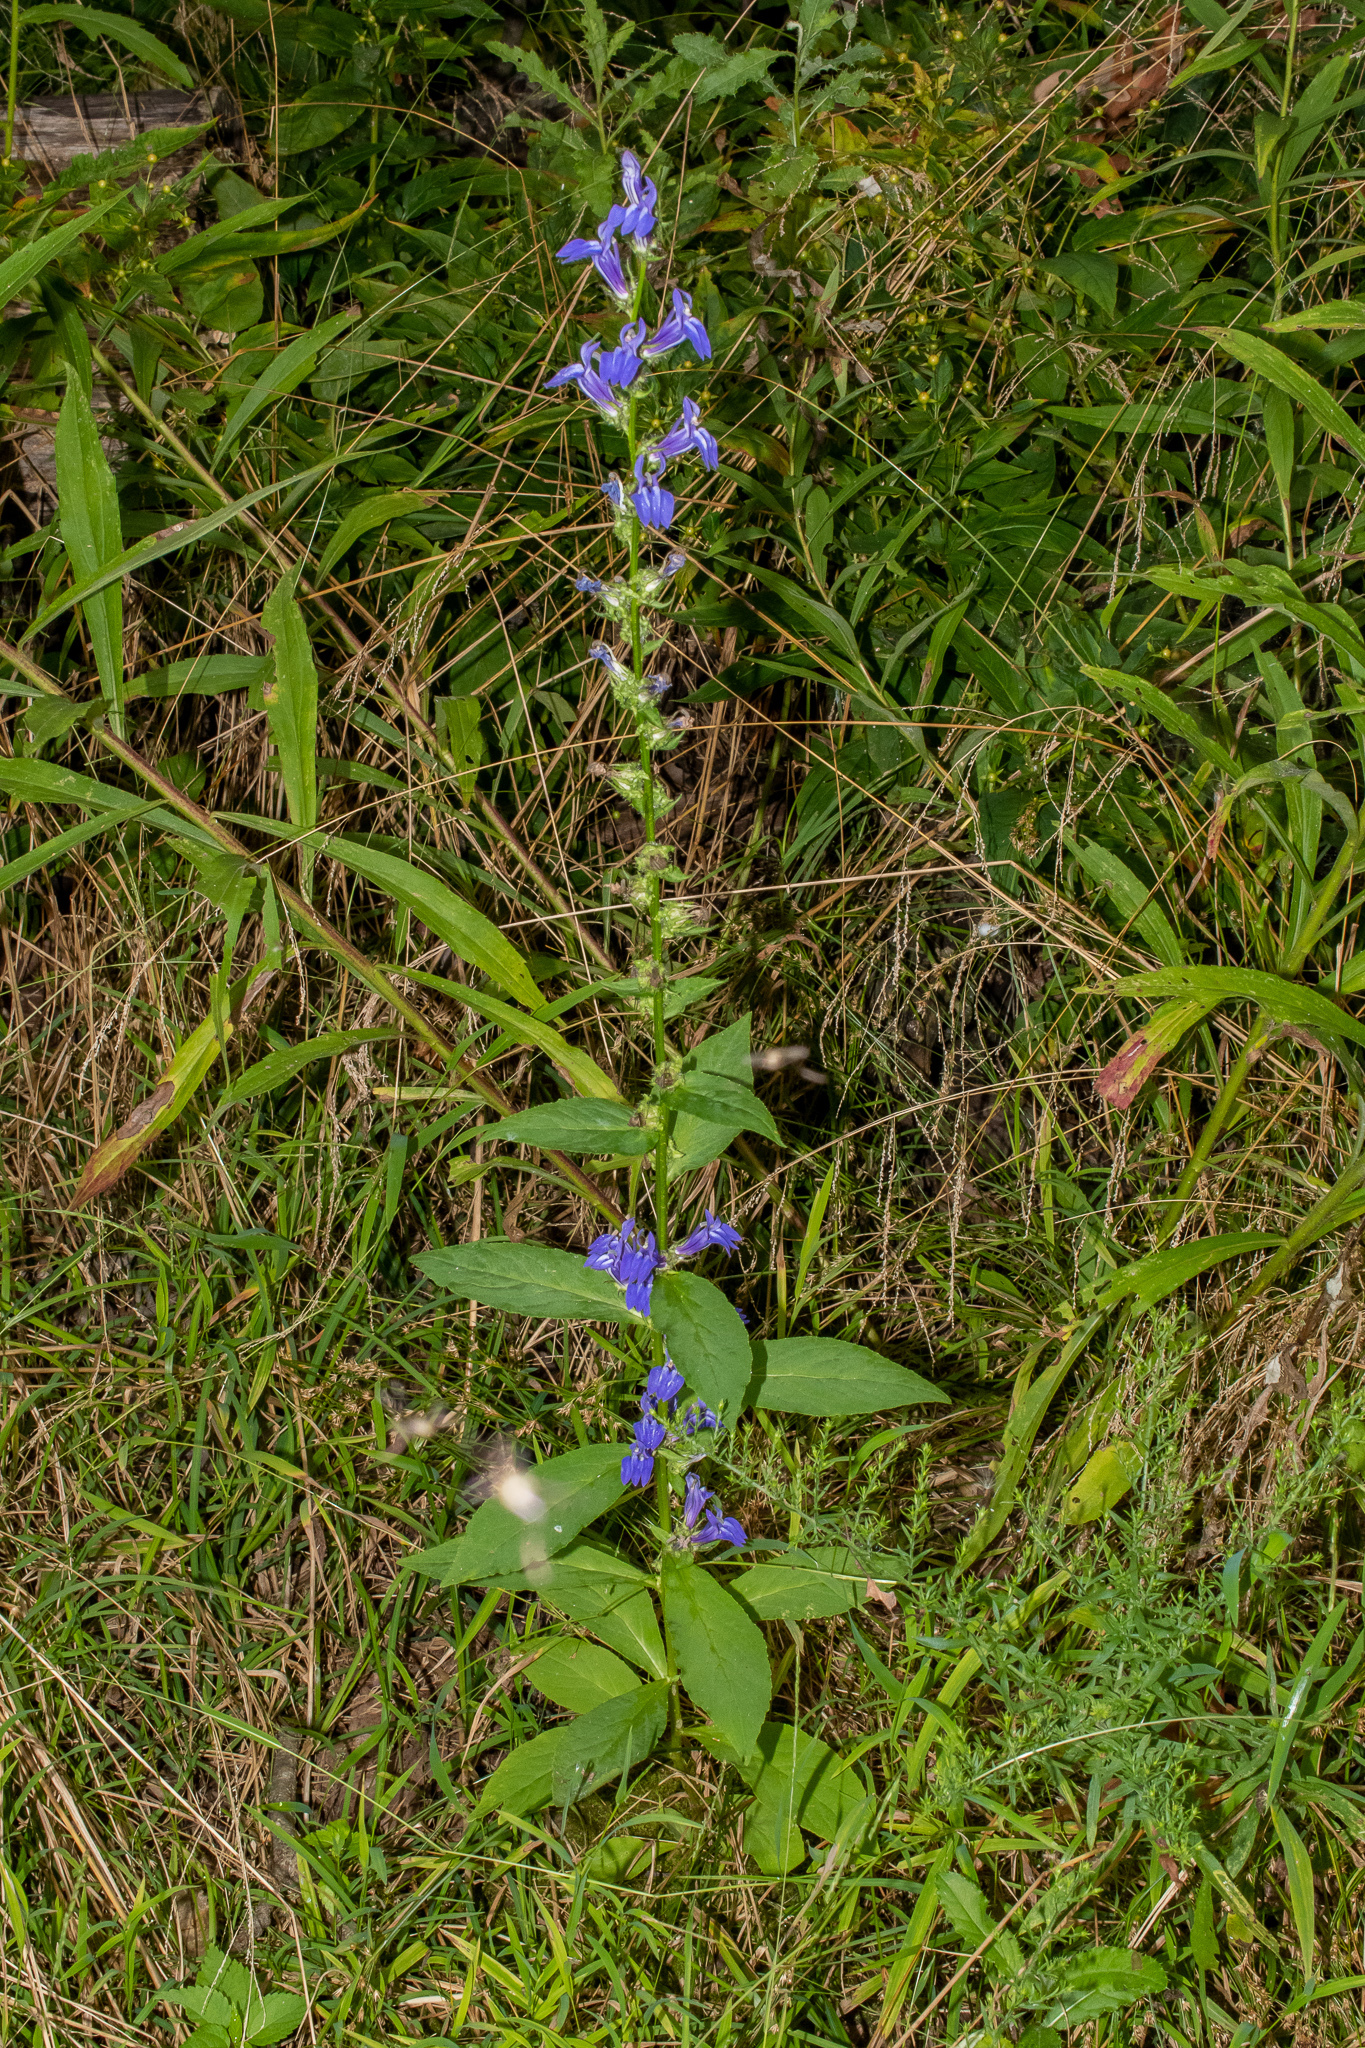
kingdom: Plantae
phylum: Tracheophyta
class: Magnoliopsida
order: Asterales
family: Campanulaceae
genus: Lobelia
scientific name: Lobelia siphilitica
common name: Great lobelia
